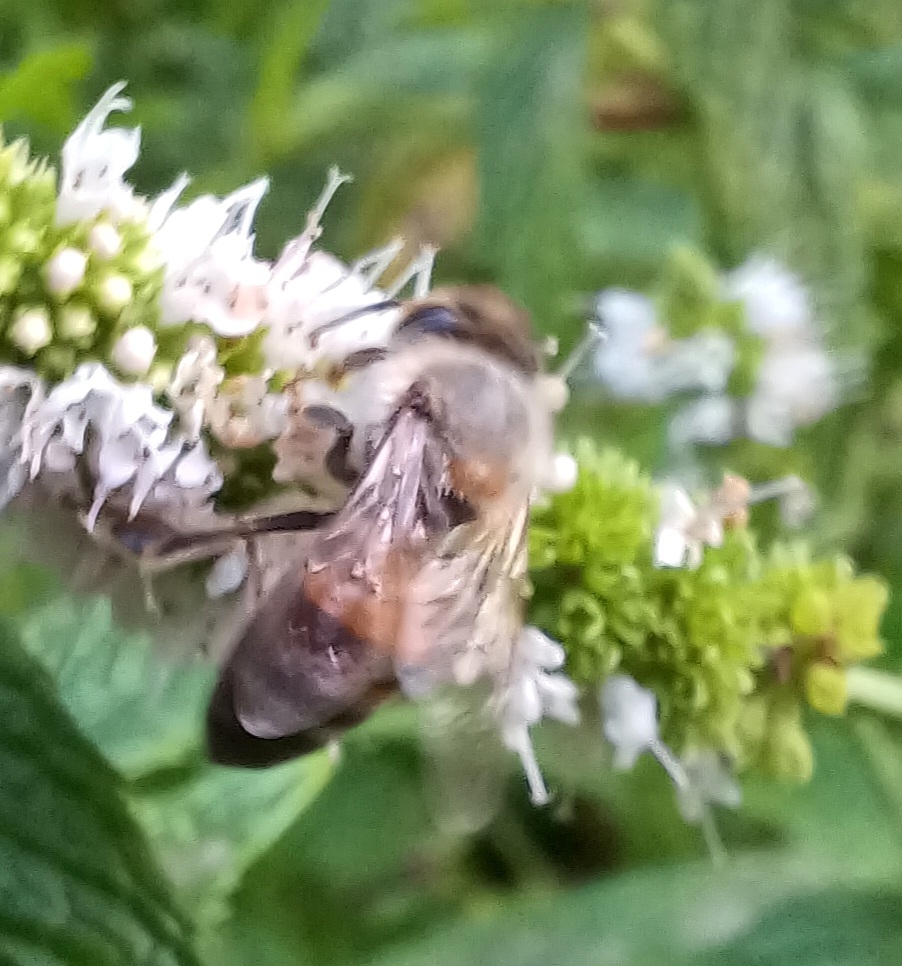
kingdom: Animalia
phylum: Arthropoda
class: Insecta
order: Hymenoptera
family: Apidae
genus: Apis
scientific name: Apis mellifera
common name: Honey bee
